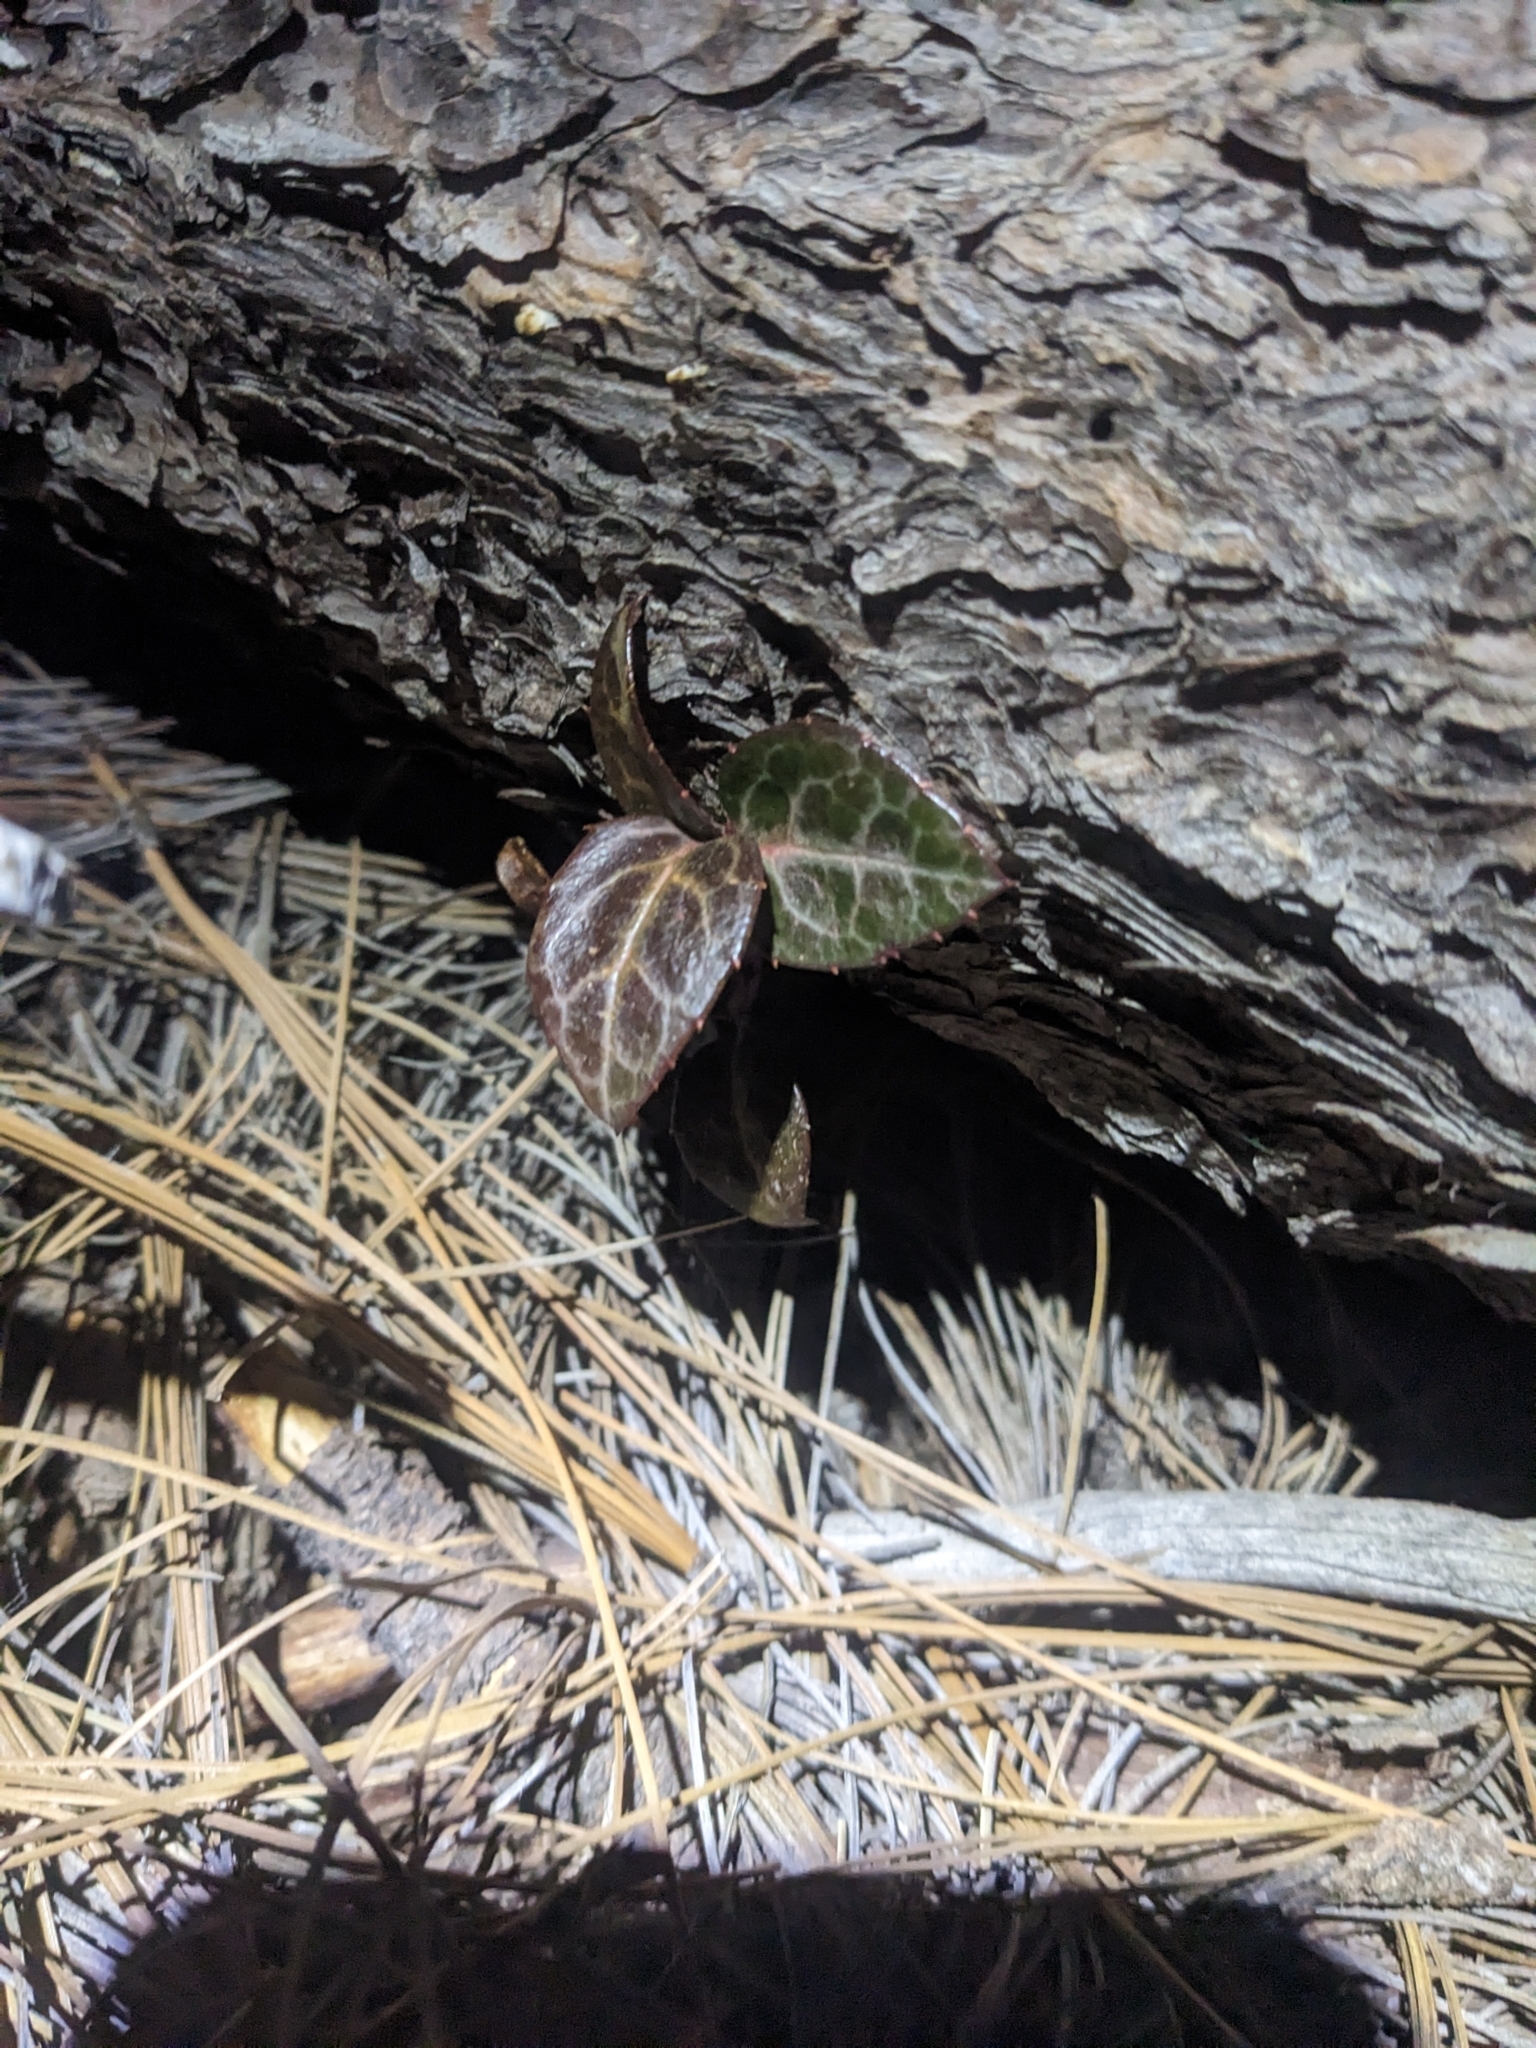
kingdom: Plantae
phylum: Tracheophyta
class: Magnoliopsida
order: Ericales
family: Ericaceae
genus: Chimaphila
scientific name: Chimaphila maculata
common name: Spotted pipsissewa
